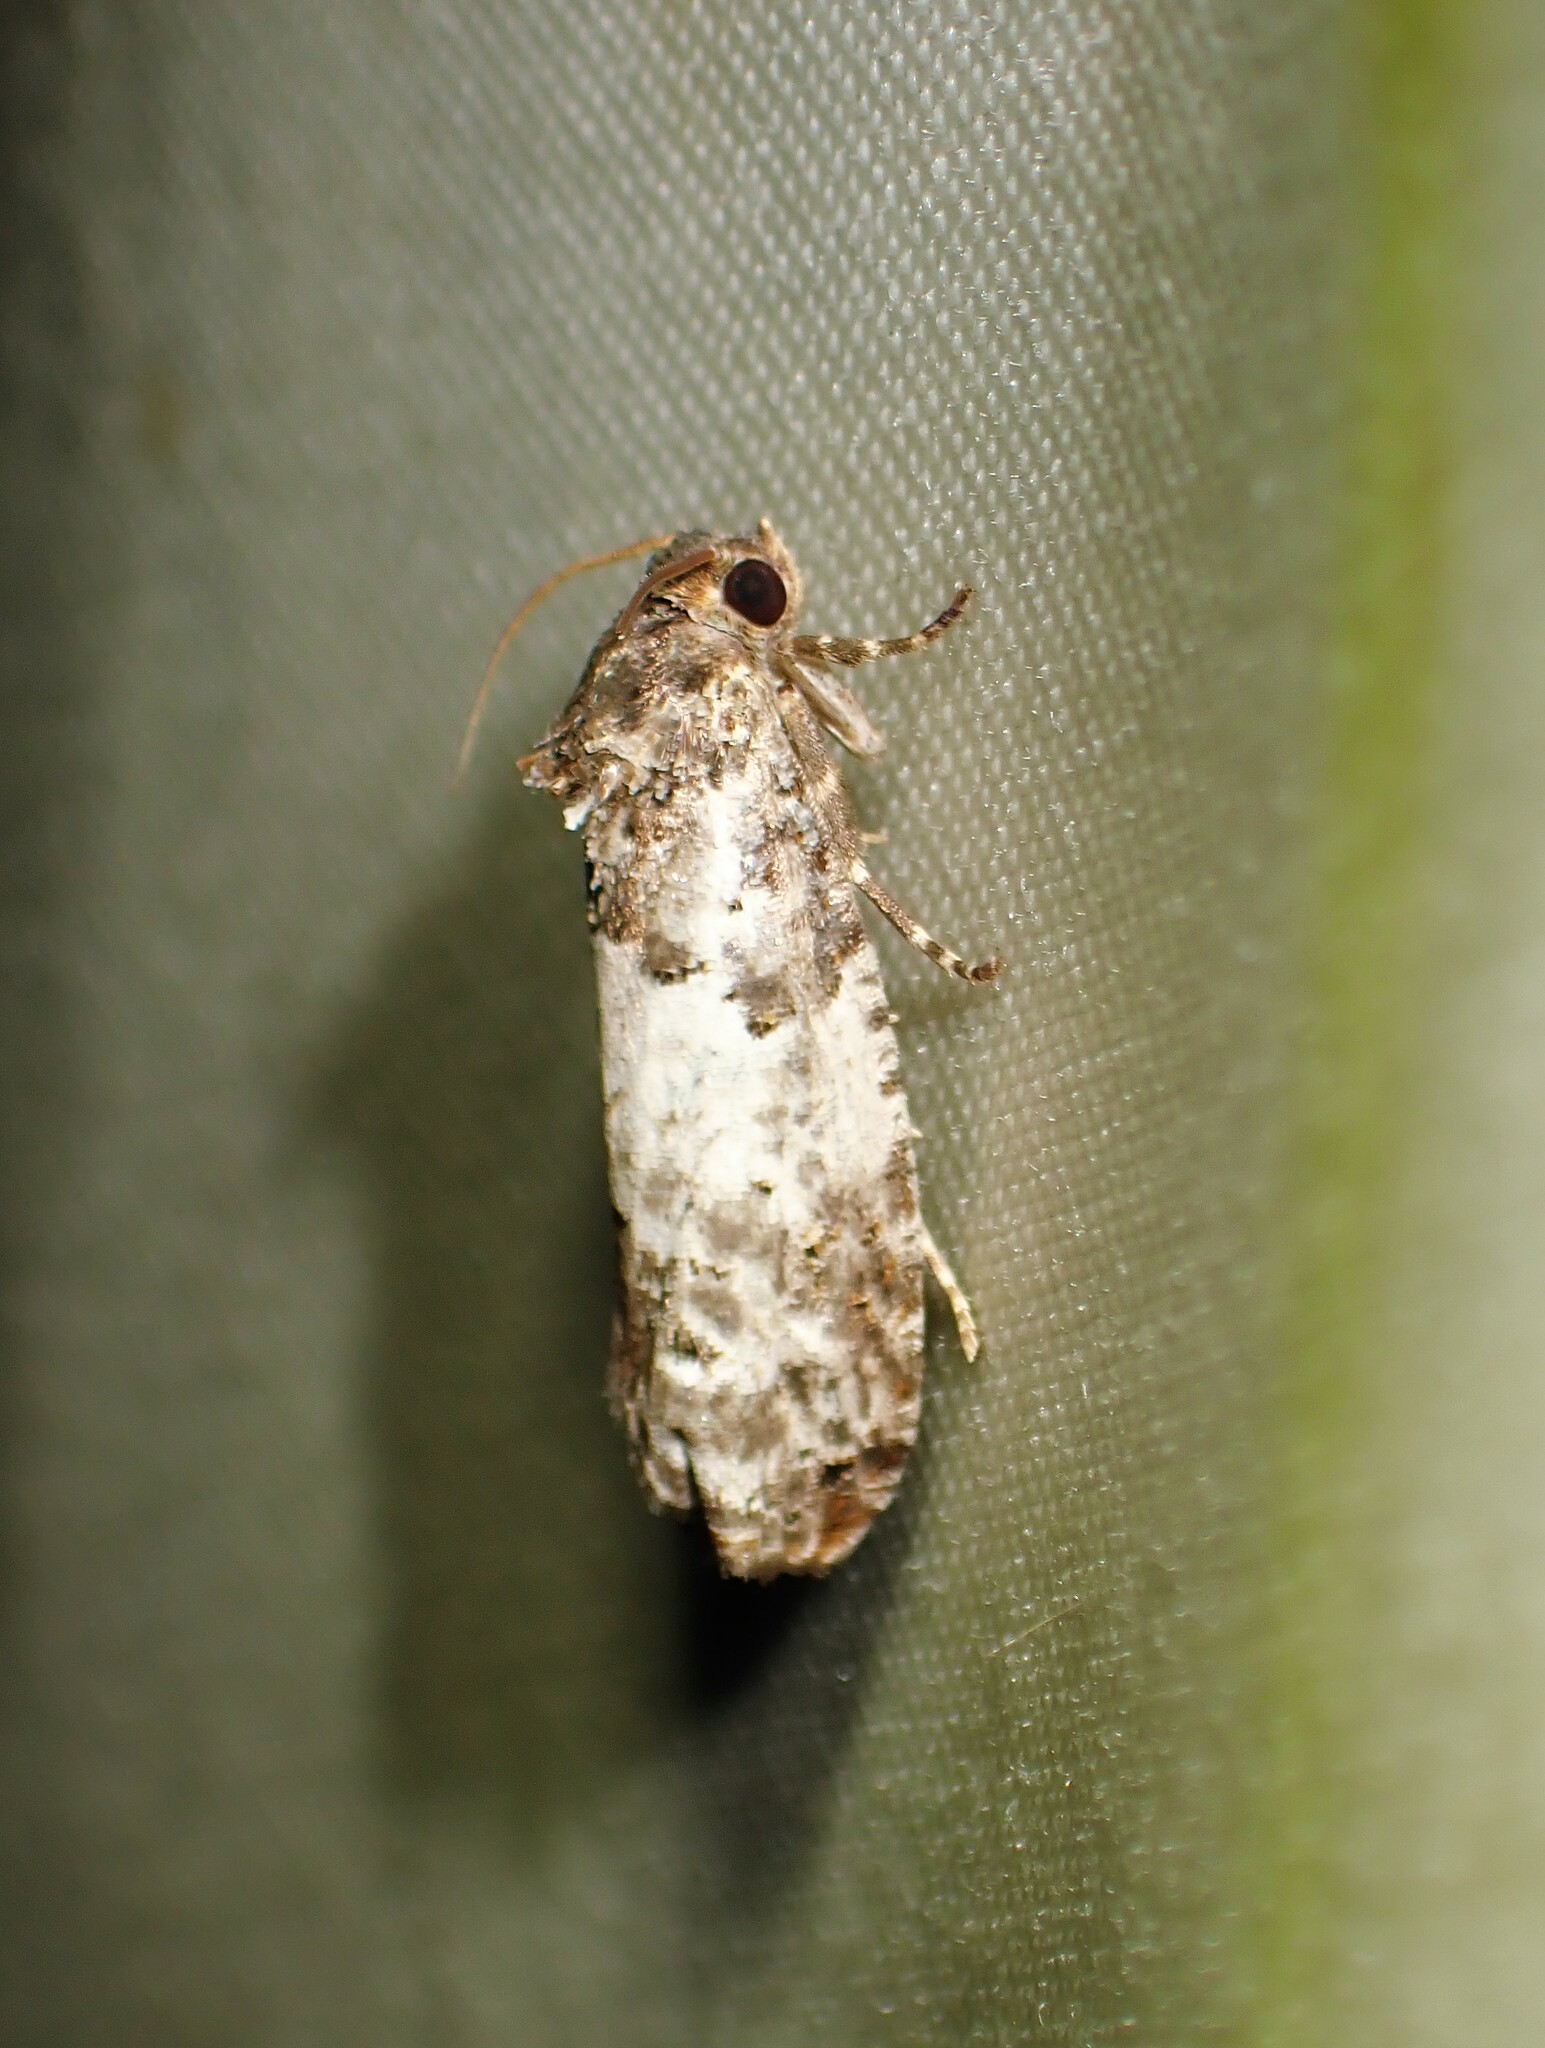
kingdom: Animalia
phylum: Arthropoda
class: Insecta
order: Lepidoptera
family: Tortricidae
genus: Epiblema
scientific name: Epiblema carolinana
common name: Gray-blotched epiblema moth
